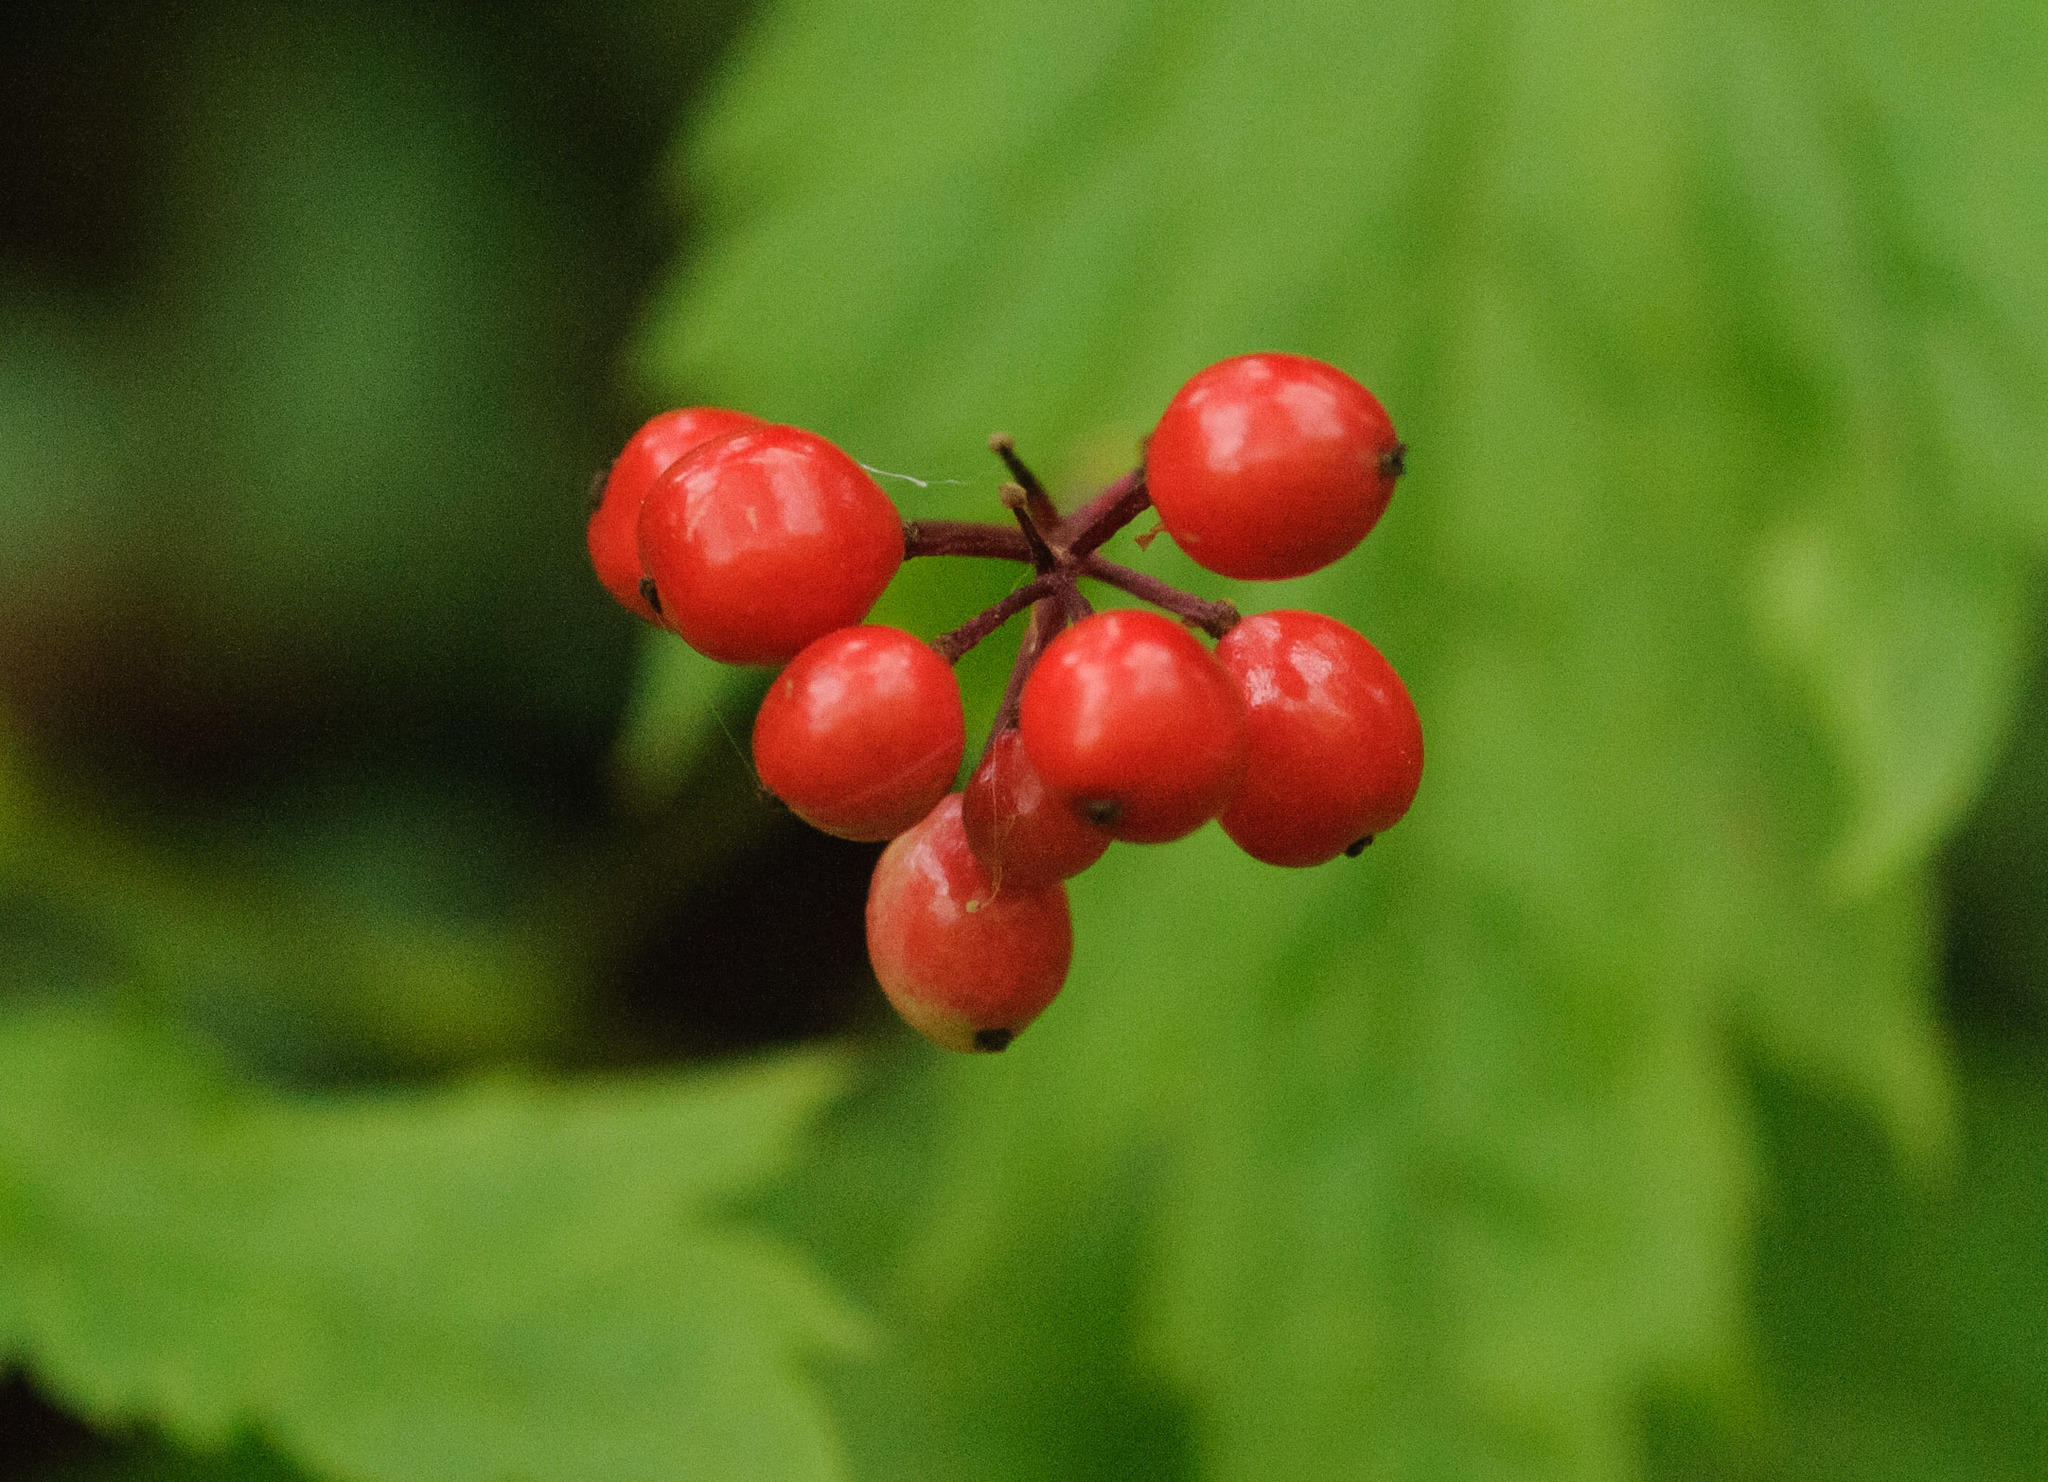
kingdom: Plantae
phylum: Tracheophyta
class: Magnoliopsida
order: Ranunculales
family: Ranunculaceae
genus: Actaea
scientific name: Actaea rubra
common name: Red baneberry
